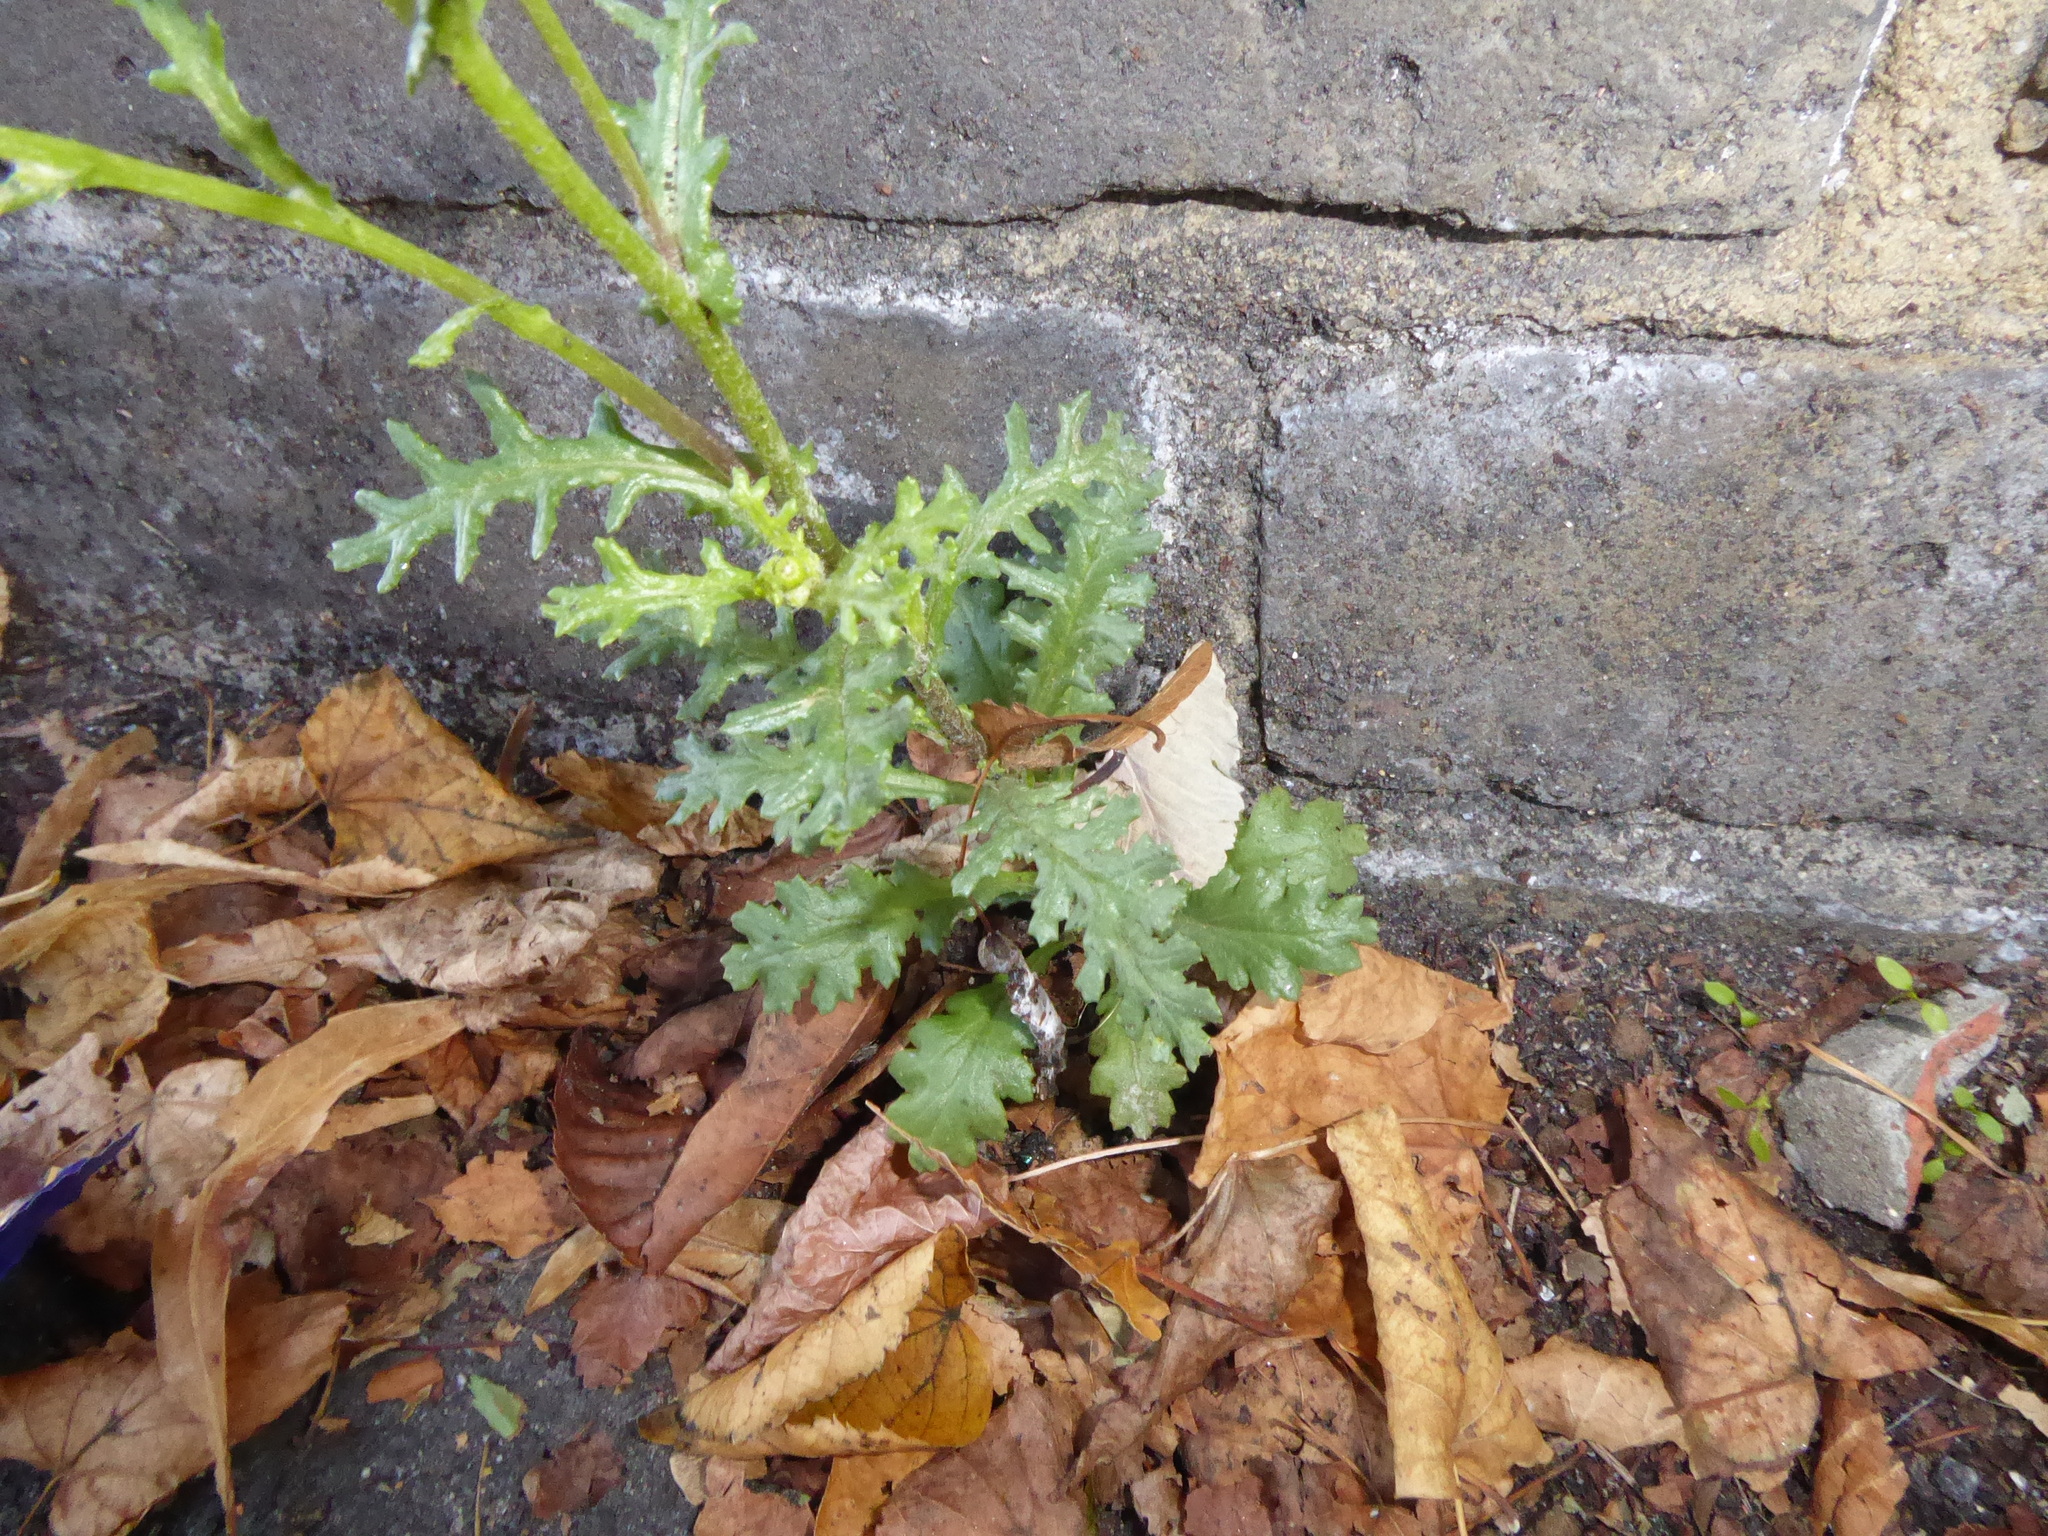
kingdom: Plantae
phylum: Tracheophyta
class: Magnoliopsida
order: Asterales
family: Asteraceae
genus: Senecio
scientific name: Senecio vulgaris
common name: Old-man-in-the-spring
